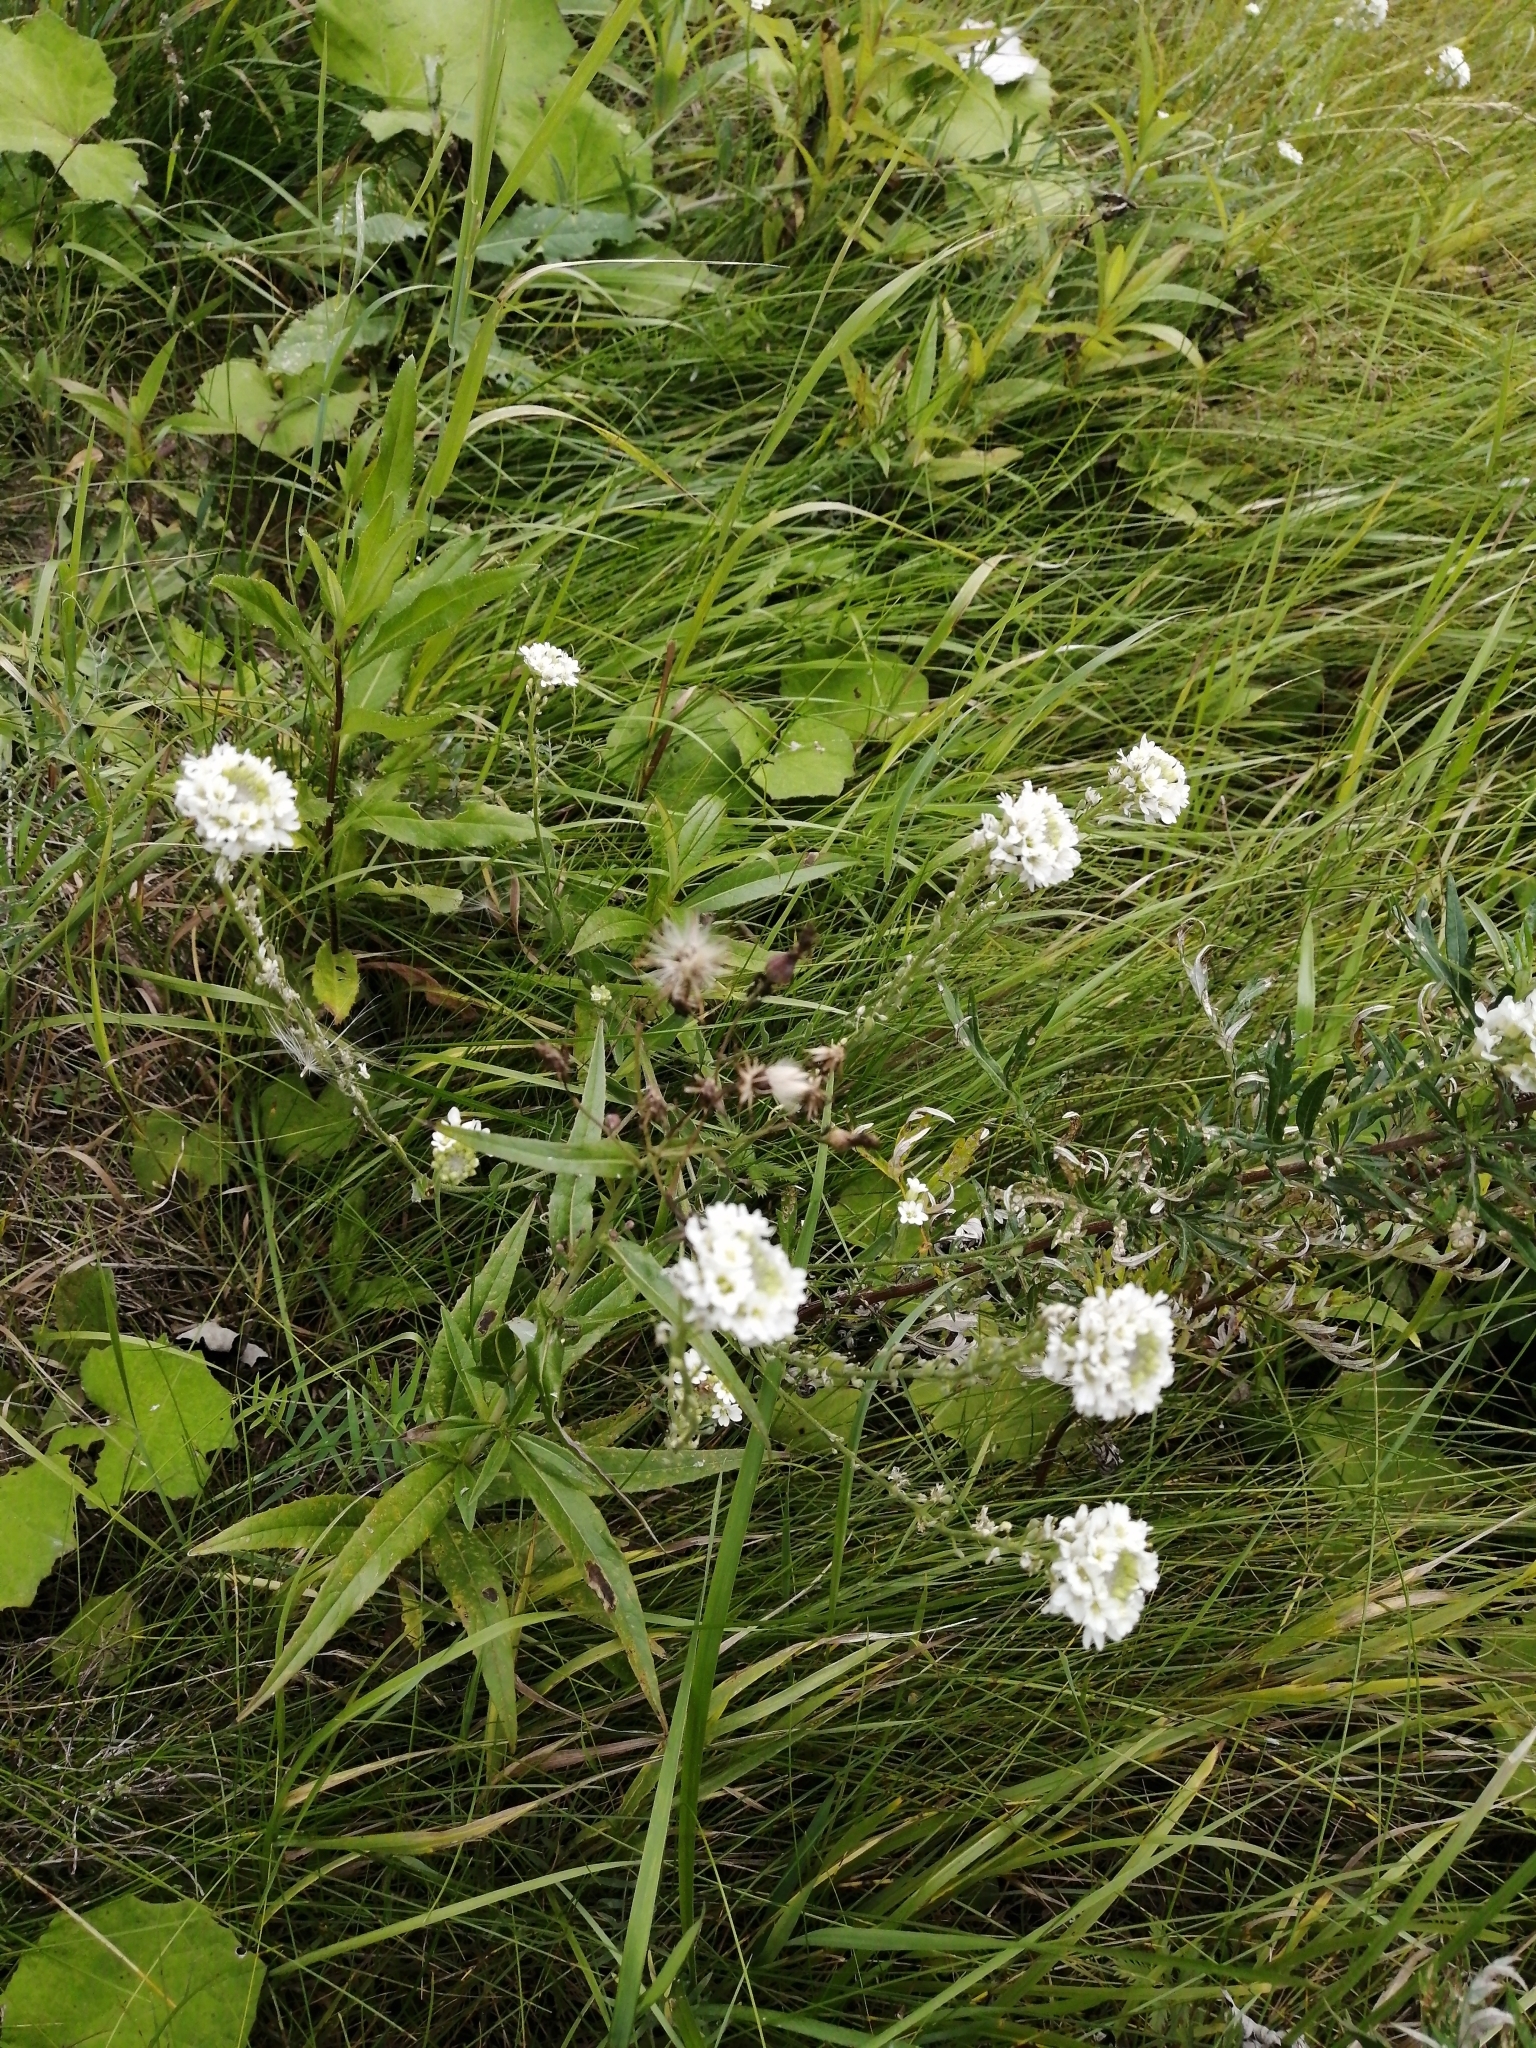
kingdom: Plantae
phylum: Tracheophyta
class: Magnoliopsida
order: Brassicales
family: Brassicaceae
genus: Berteroa
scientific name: Berteroa incana
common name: Hoary alison
